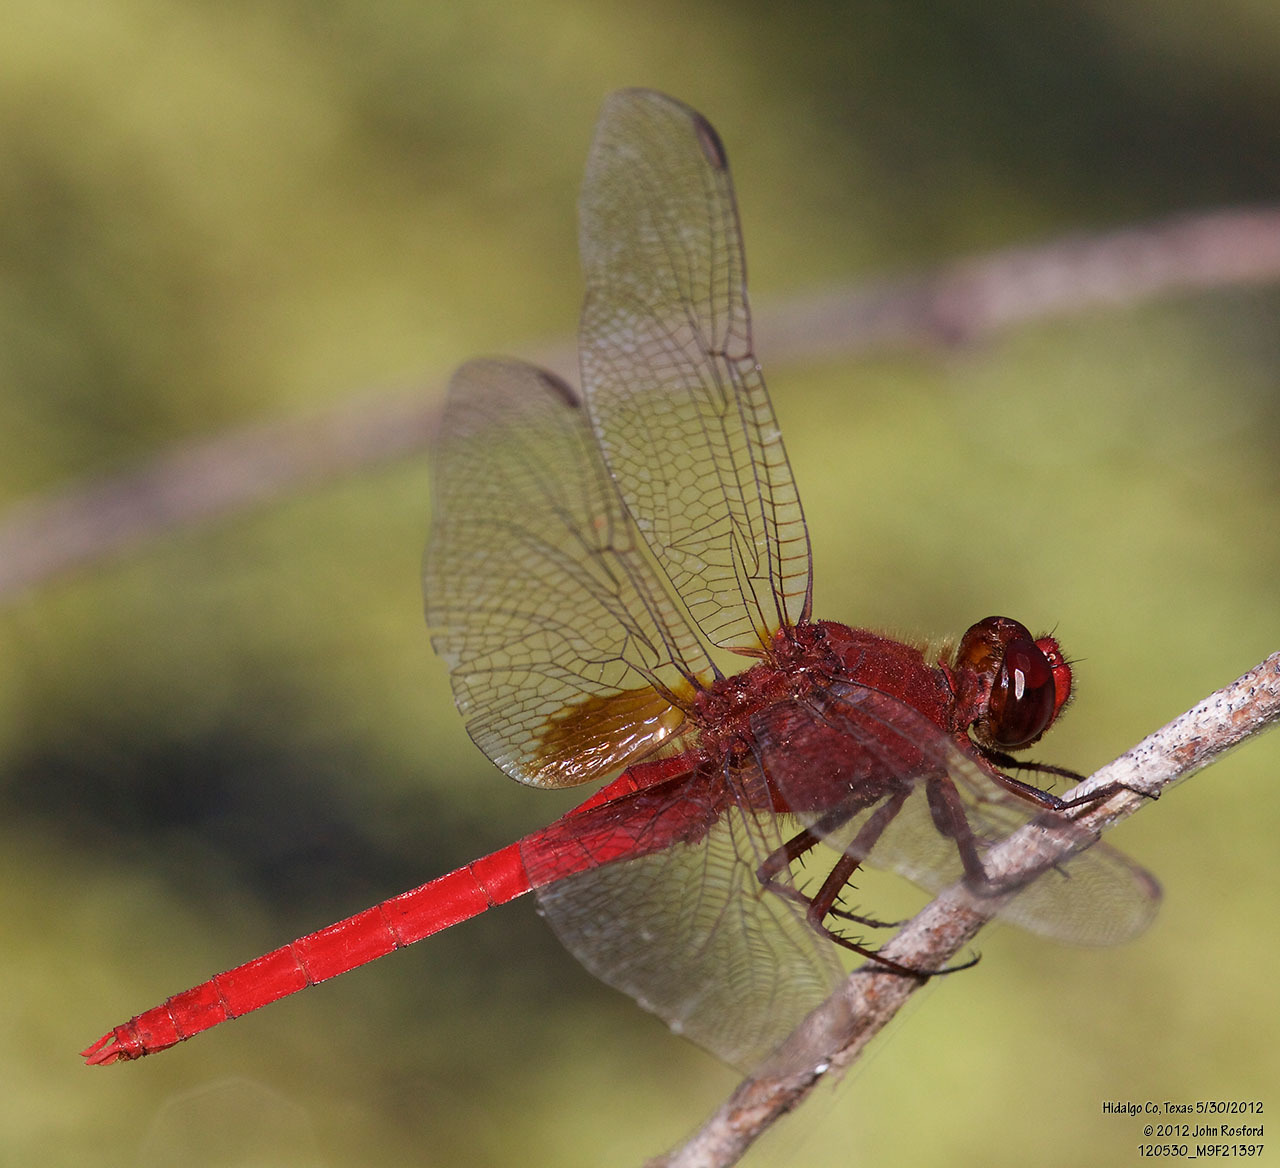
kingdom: Animalia
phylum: Arthropoda
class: Insecta
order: Odonata
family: Libellulidae
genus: Erythemis
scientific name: Erythemis mithroides
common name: Claret pondhawk
